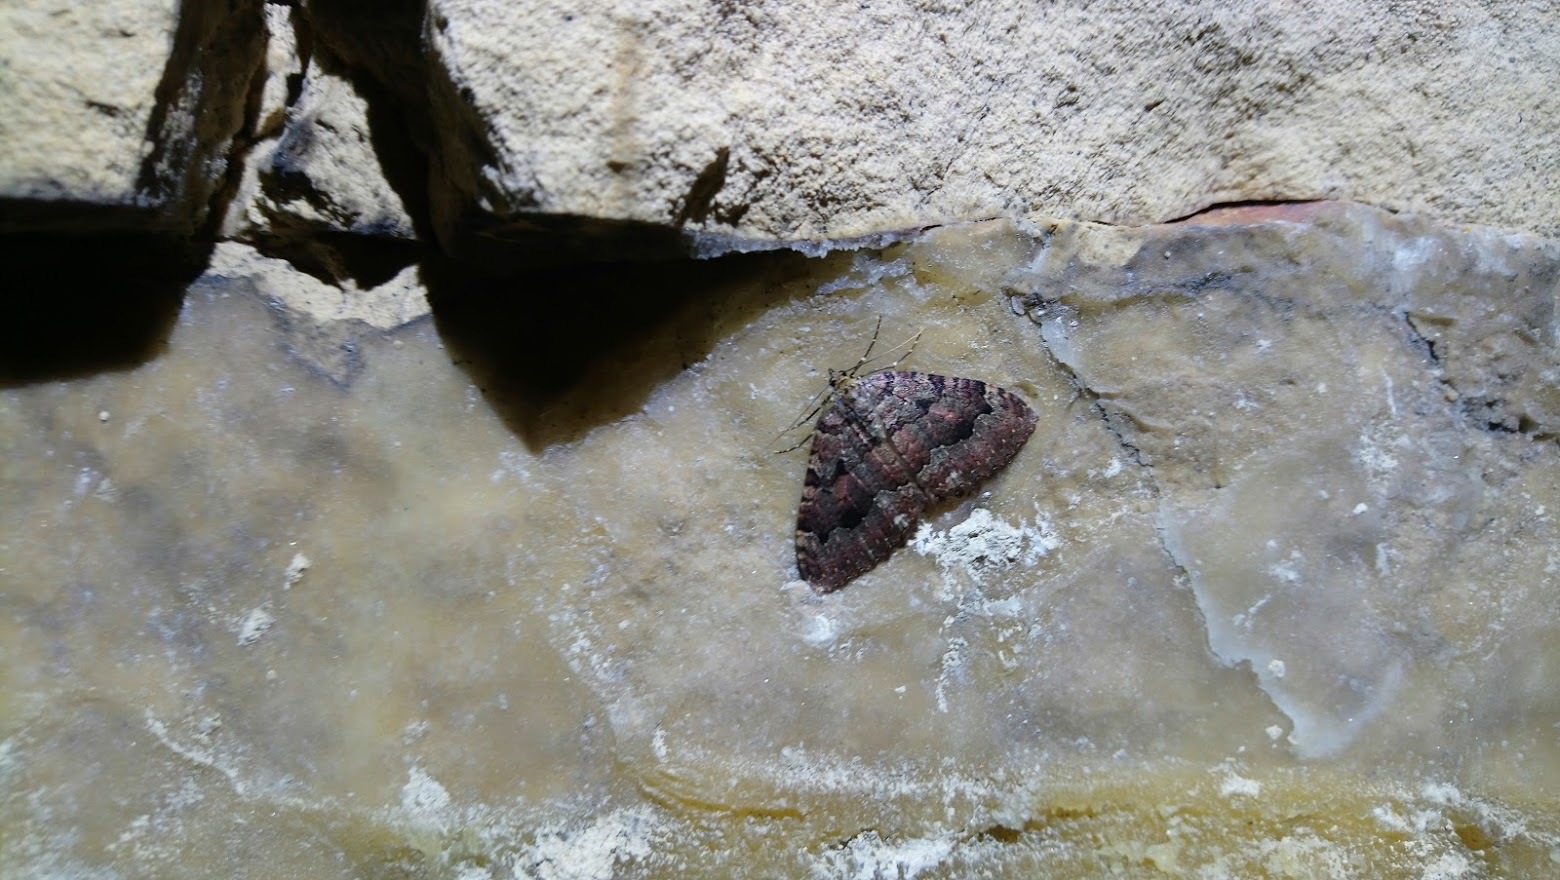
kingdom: Animalia
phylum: Arthropoda
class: Insecta
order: Lepidoptera
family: Geometridae
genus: Triphosa
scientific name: Triphosa dubitata
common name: Tissue
